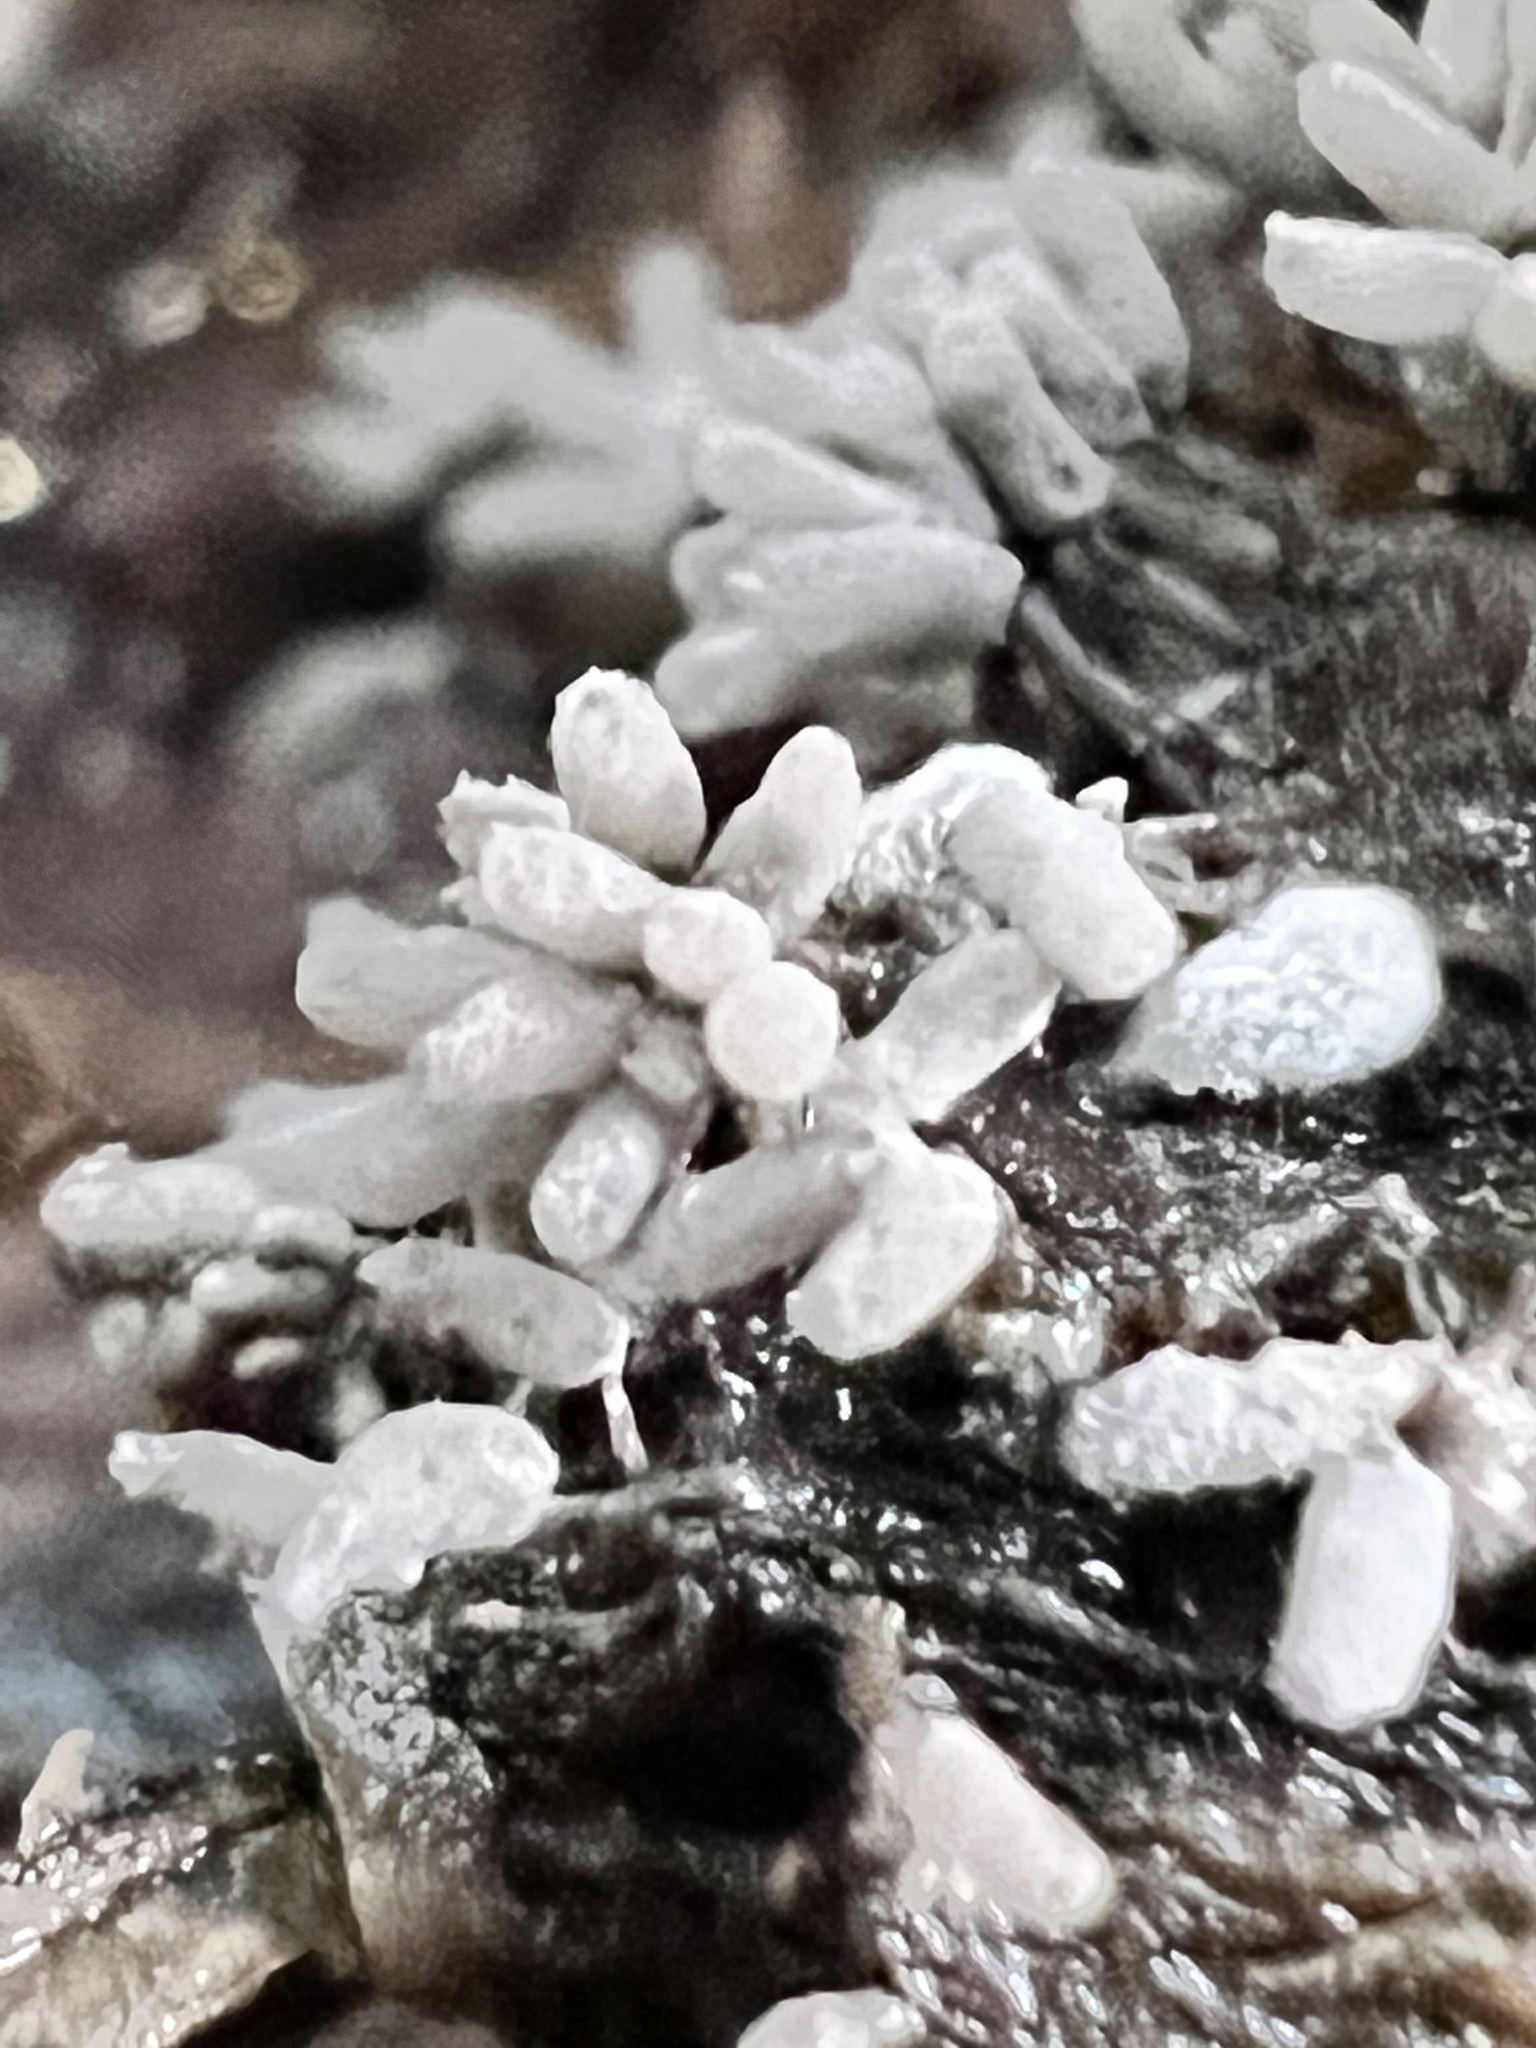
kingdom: Protozoa
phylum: Mycetozoa
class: Myxomycetes
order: Trichiales
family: Arcyriaceae
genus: Arcyria
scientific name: Arcyria cinerea
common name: White carnival candy slime mold
